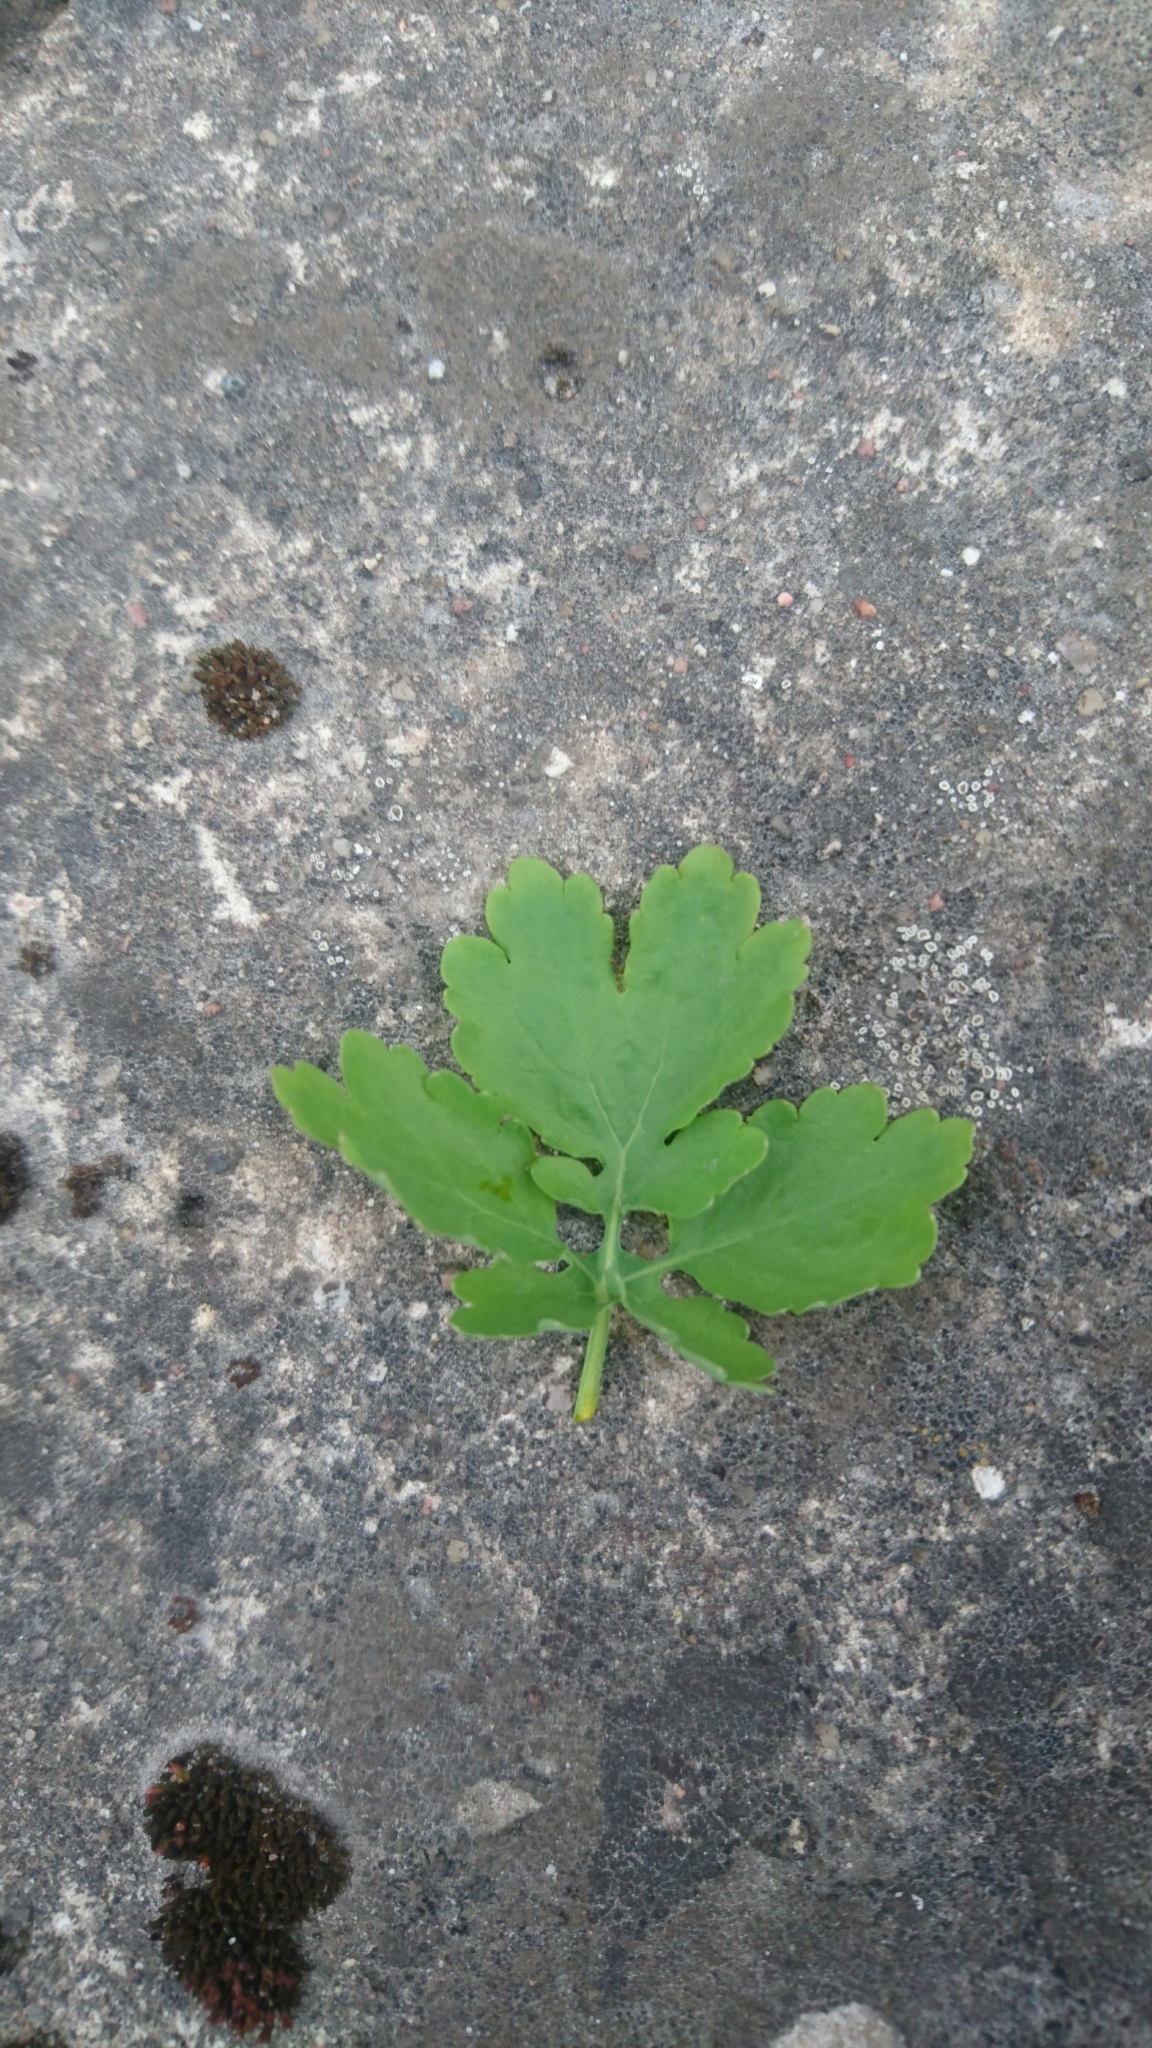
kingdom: Plantae
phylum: Tracheophyta
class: Magnoliopsida
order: Ranunculales
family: Papaveraceae
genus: Chelidonium
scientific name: Chelidonium majus
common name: Greater celandine
